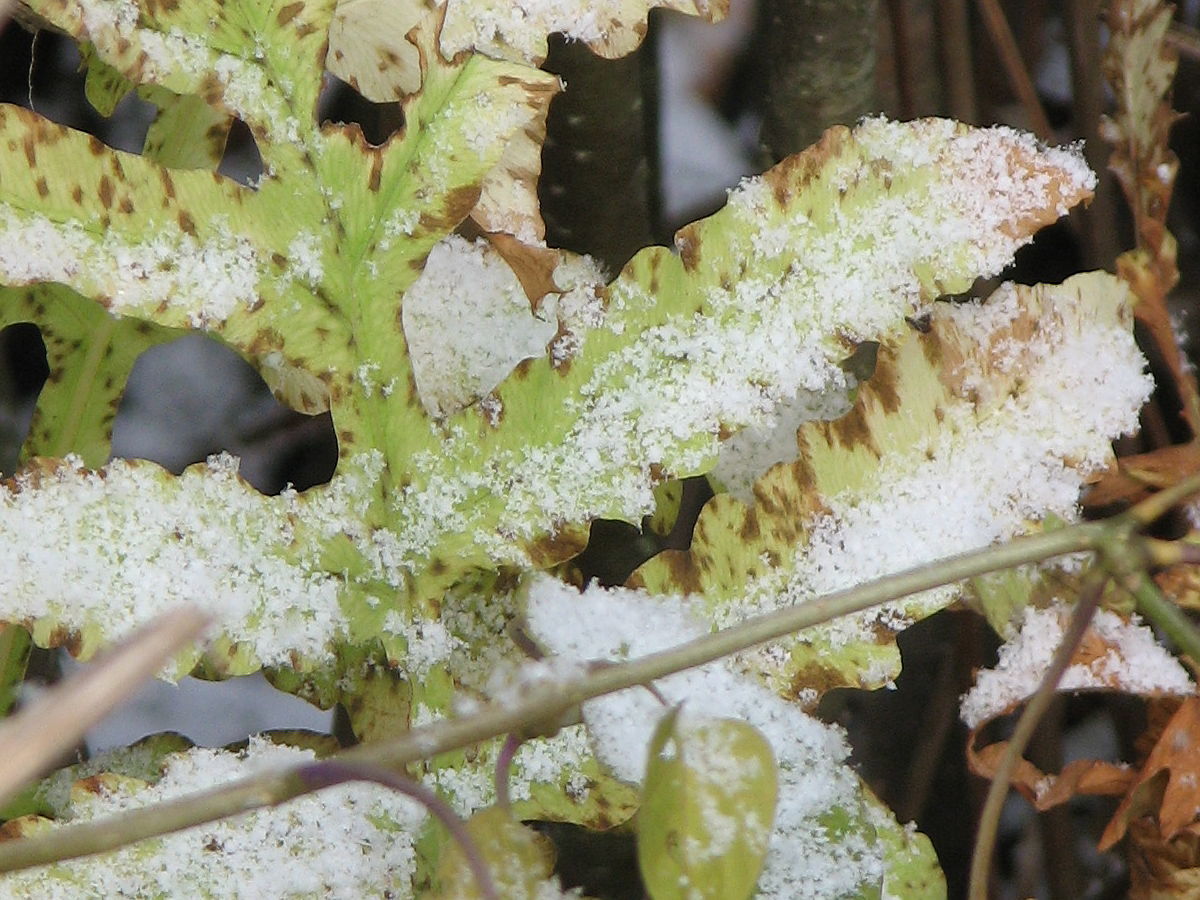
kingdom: Plantae
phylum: Tracheophyta
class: Polypodiopsida
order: Osmundales
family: Osmundaceae
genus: Osmundastrum
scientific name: Osmundastrum cinnamomeum
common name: Cinnamon fern
